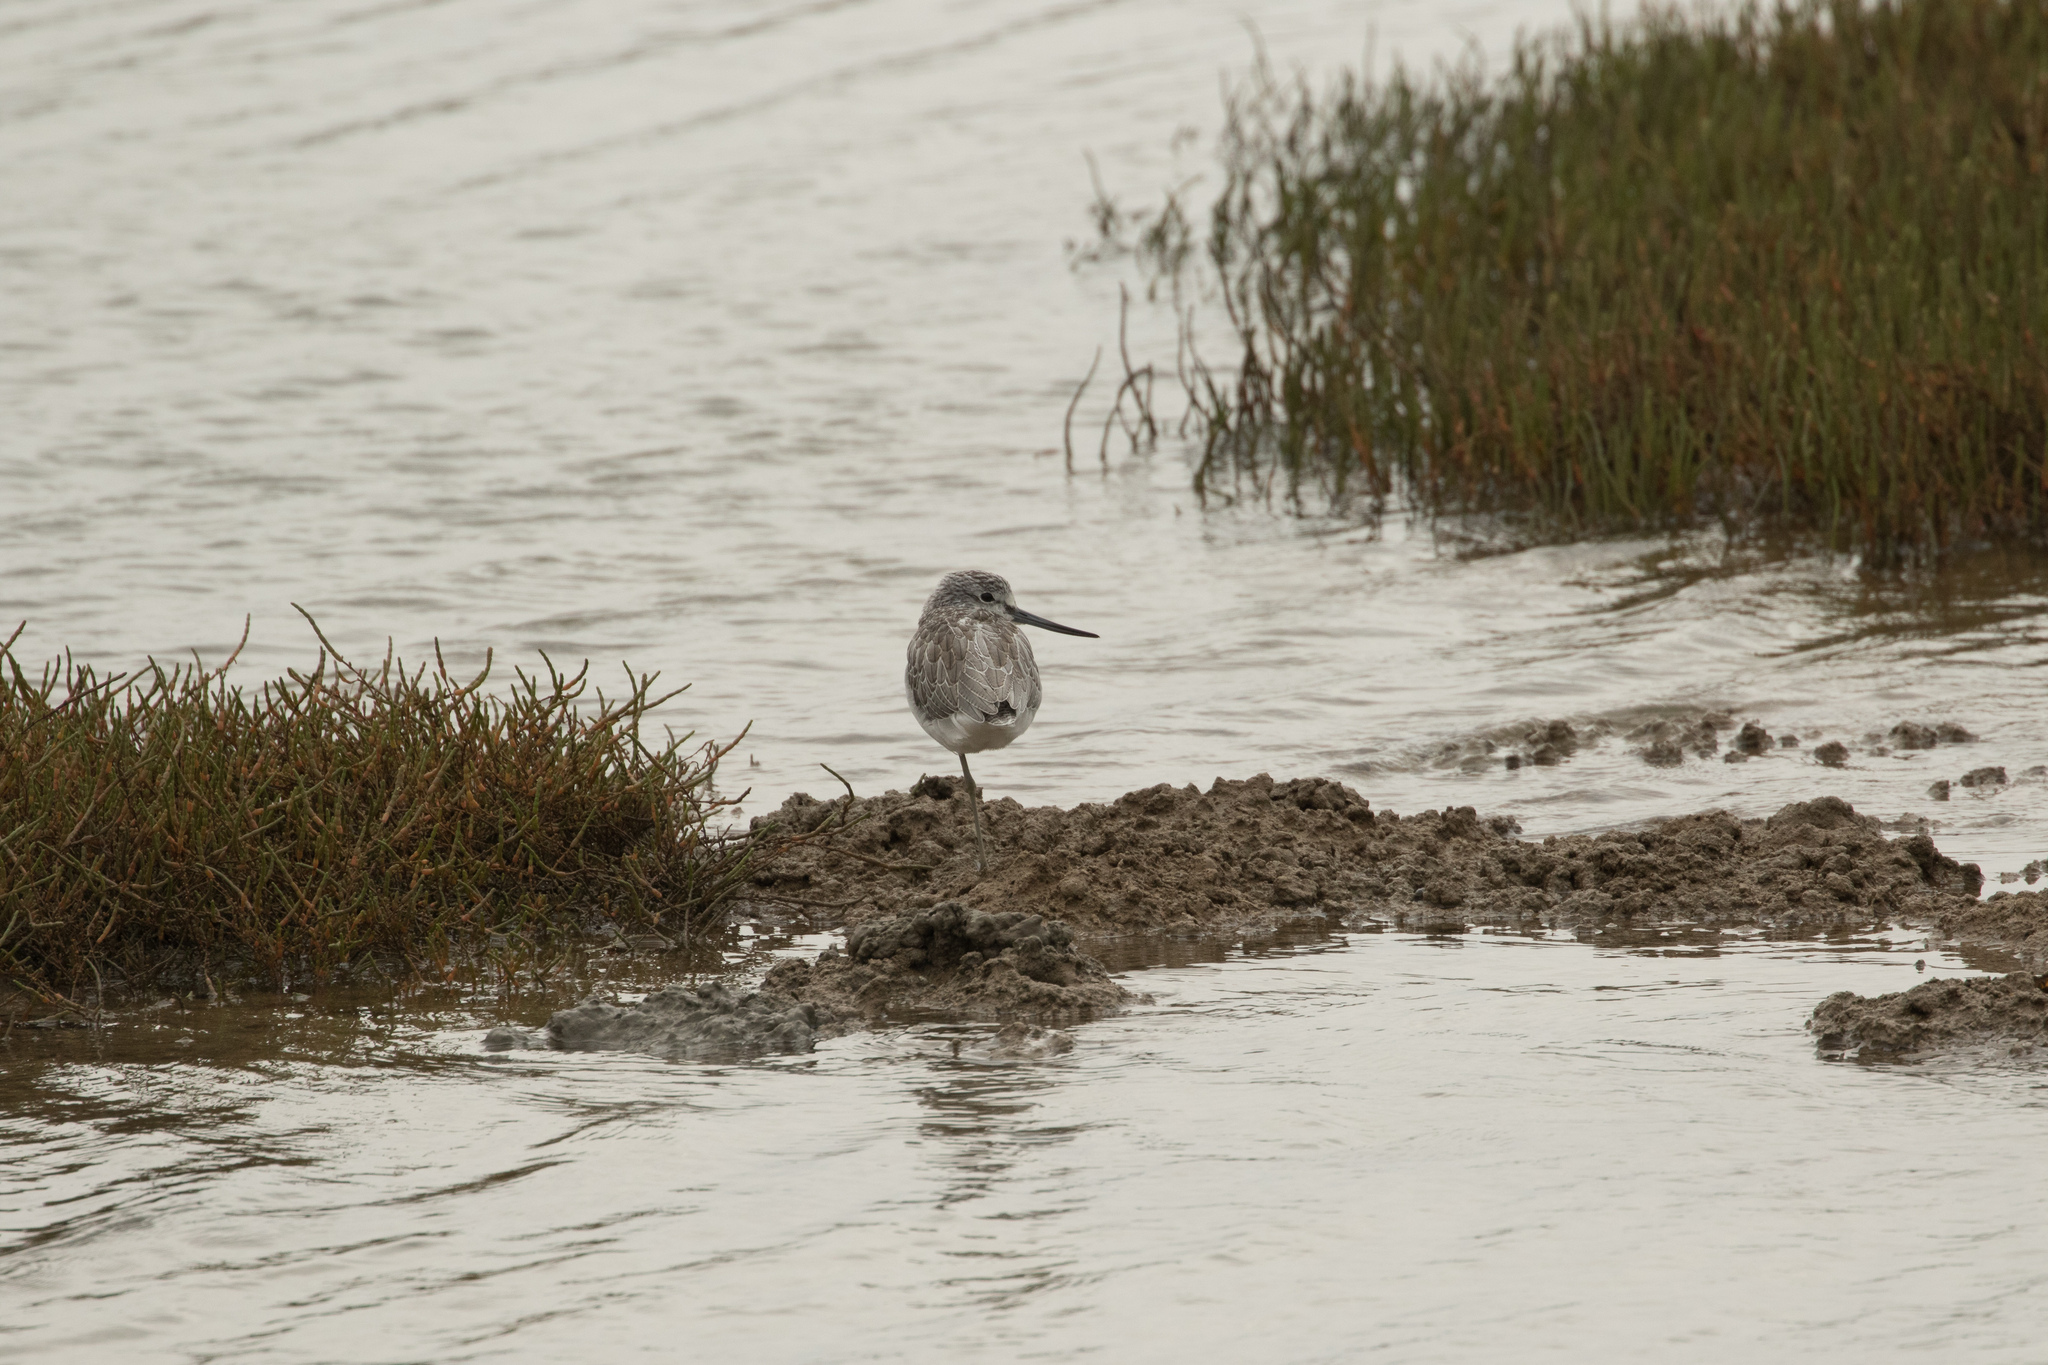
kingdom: Animalia
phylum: Chordata
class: Aves
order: Charadriiformes
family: Scolopacidae
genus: Tringa
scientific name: Tringa nebularia
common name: Common greenshank
